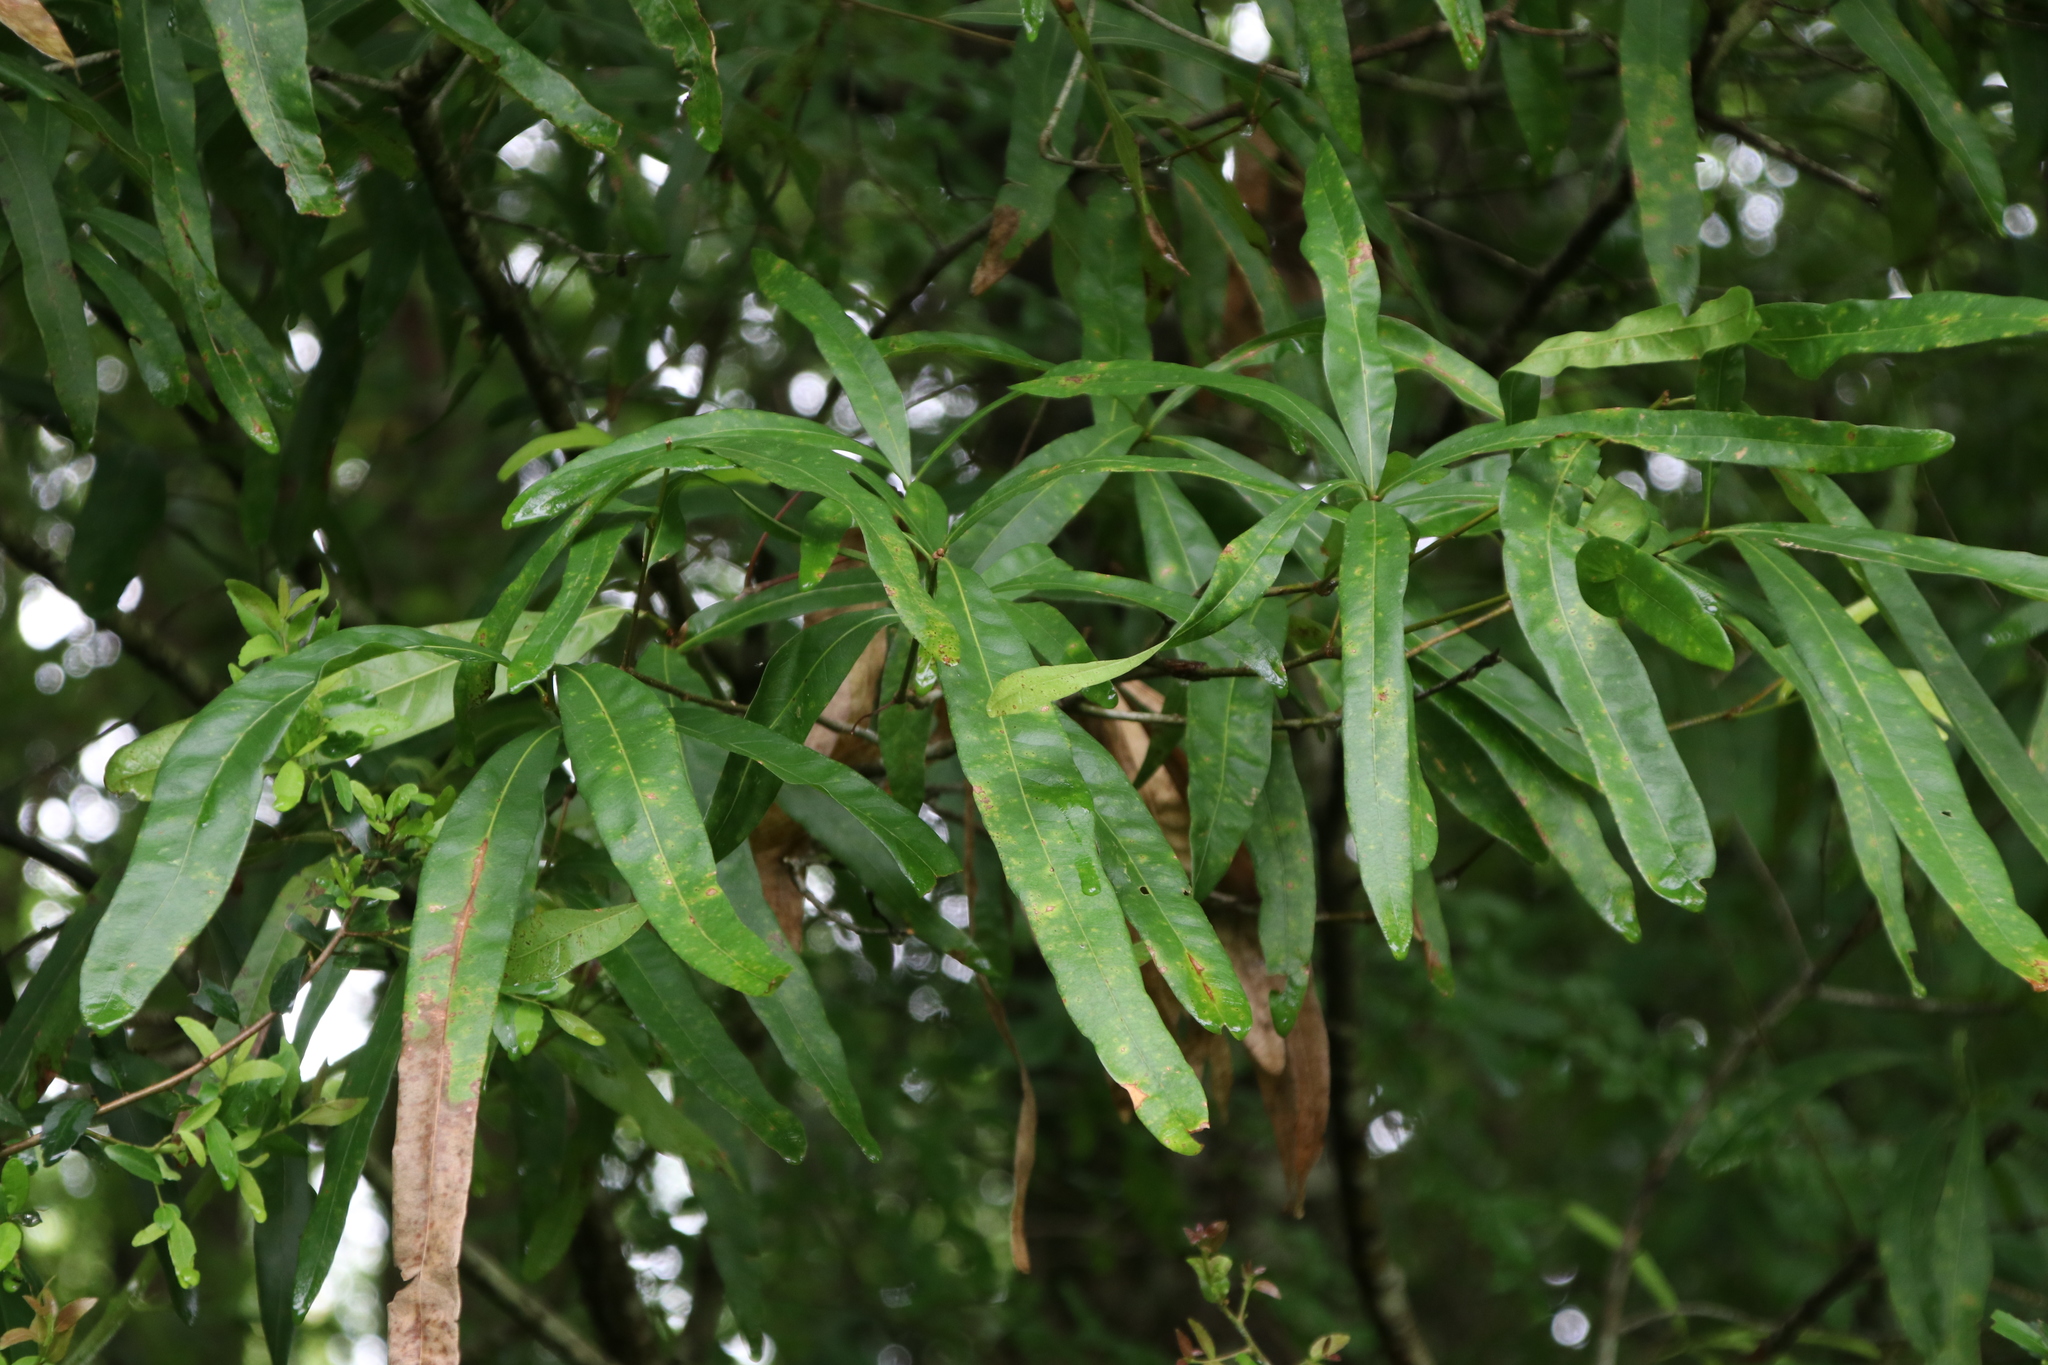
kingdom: Plantae
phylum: Tracheophyta
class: Magnoliopsida
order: Fagales
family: Fagaceae
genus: Quercus
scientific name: Quercus phellos
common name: Willow oak
